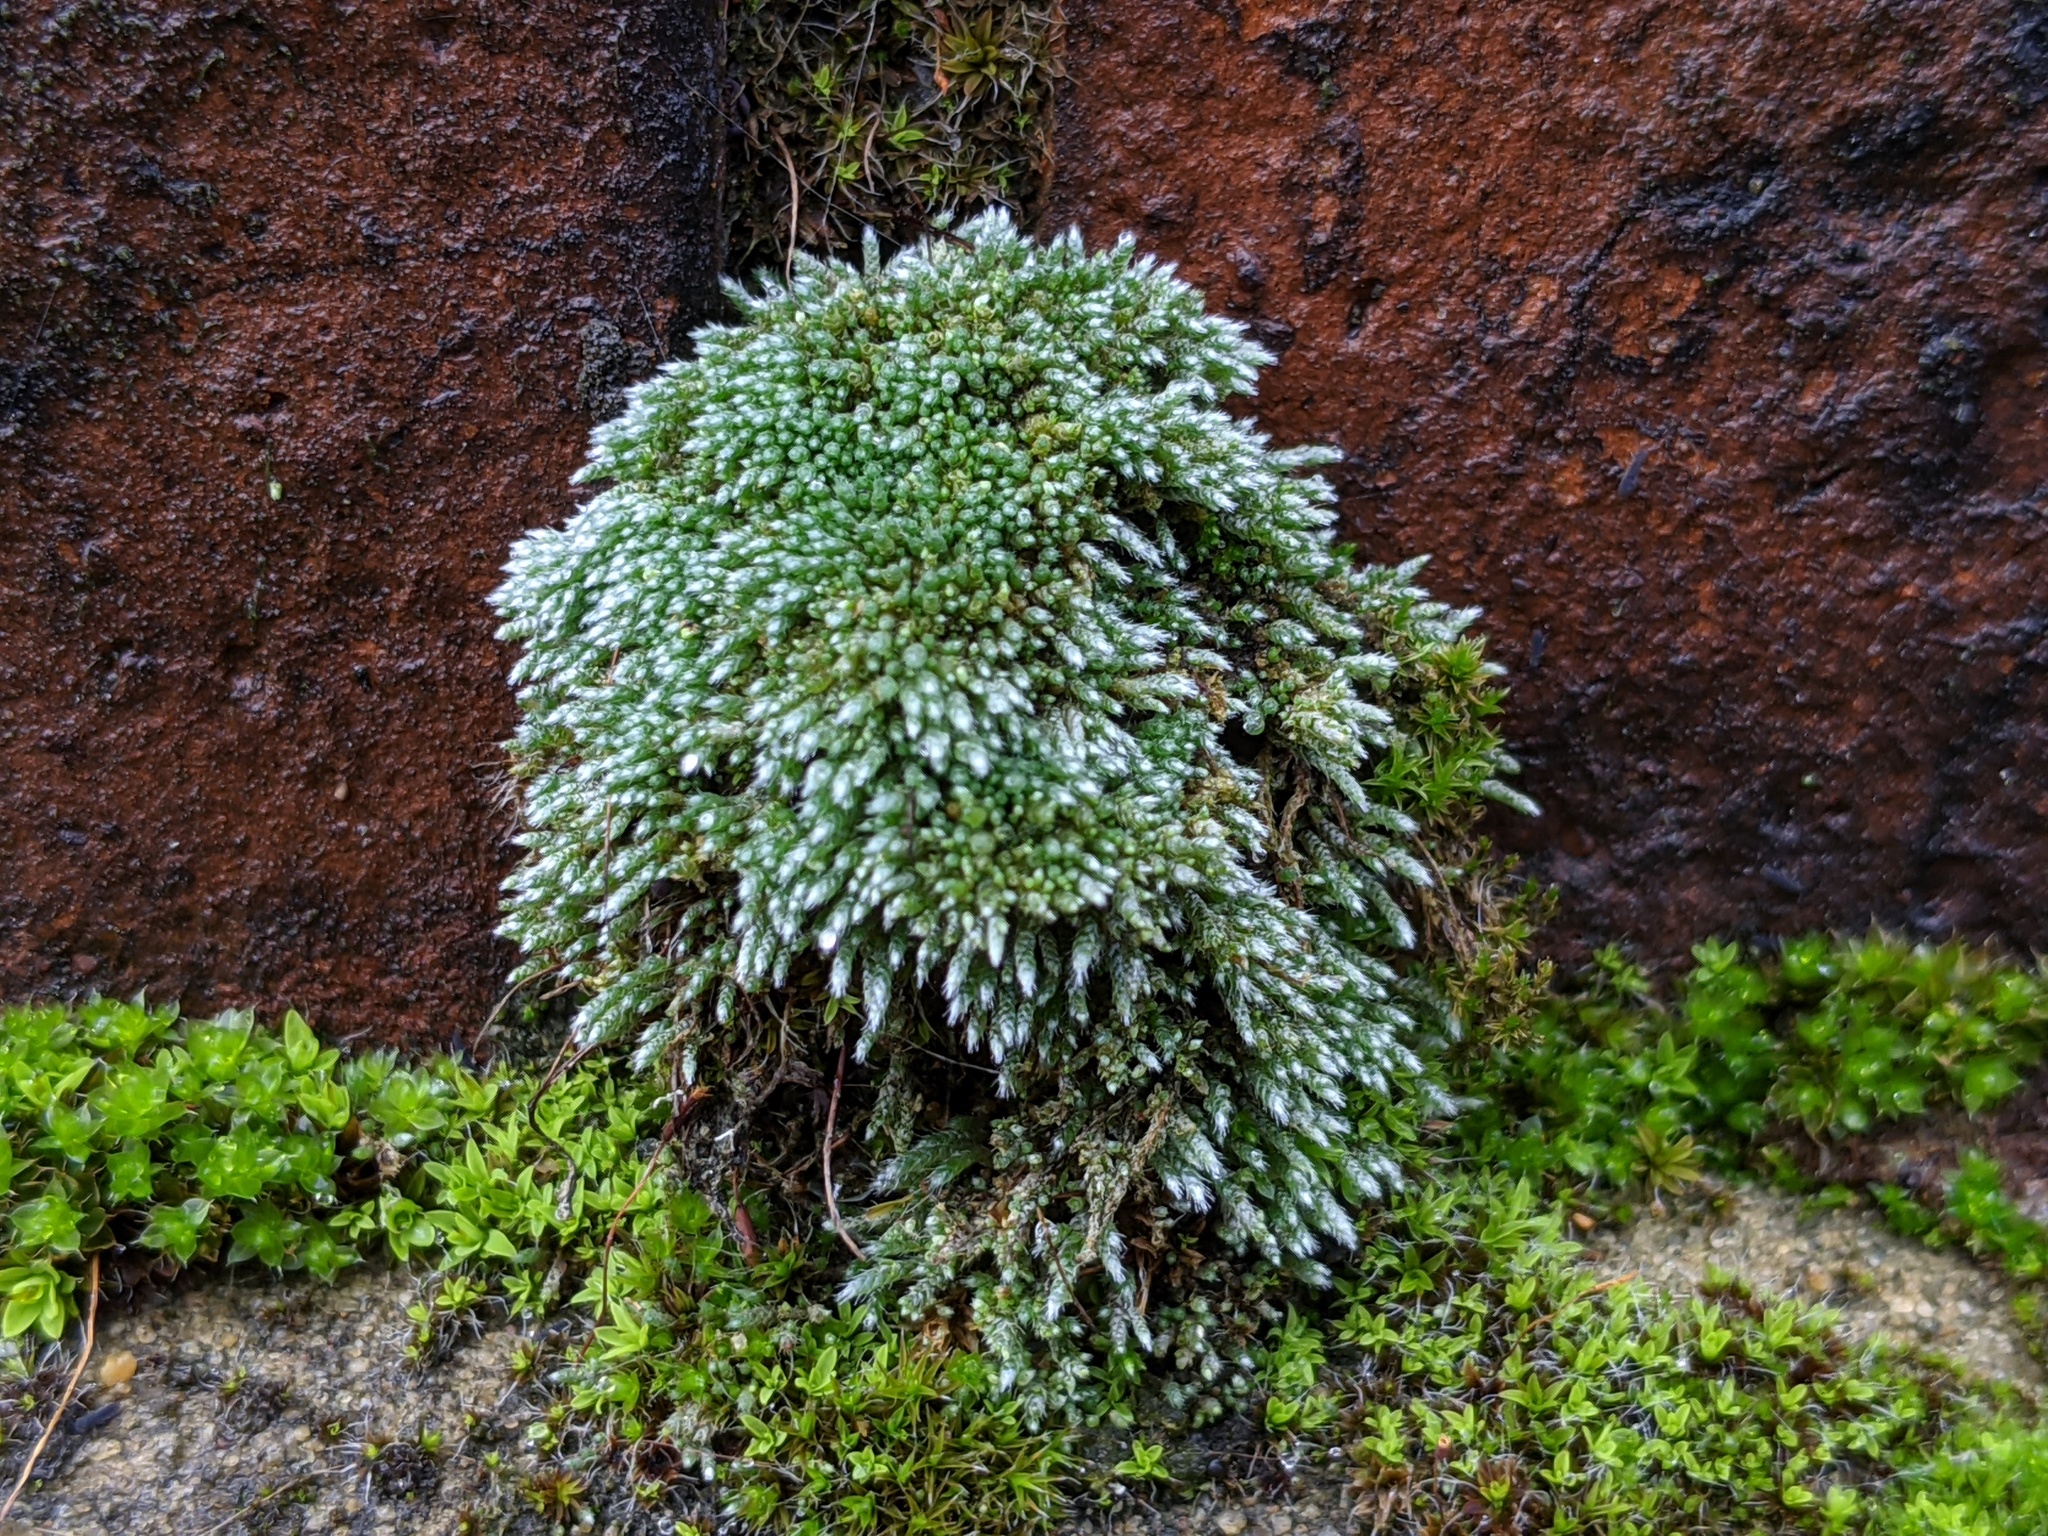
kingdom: Plantae
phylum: Bryophyta
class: Bryopsida
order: Bryales
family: Bryaceae
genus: Bryum
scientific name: Bryum argenteum
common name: Silver-moss
